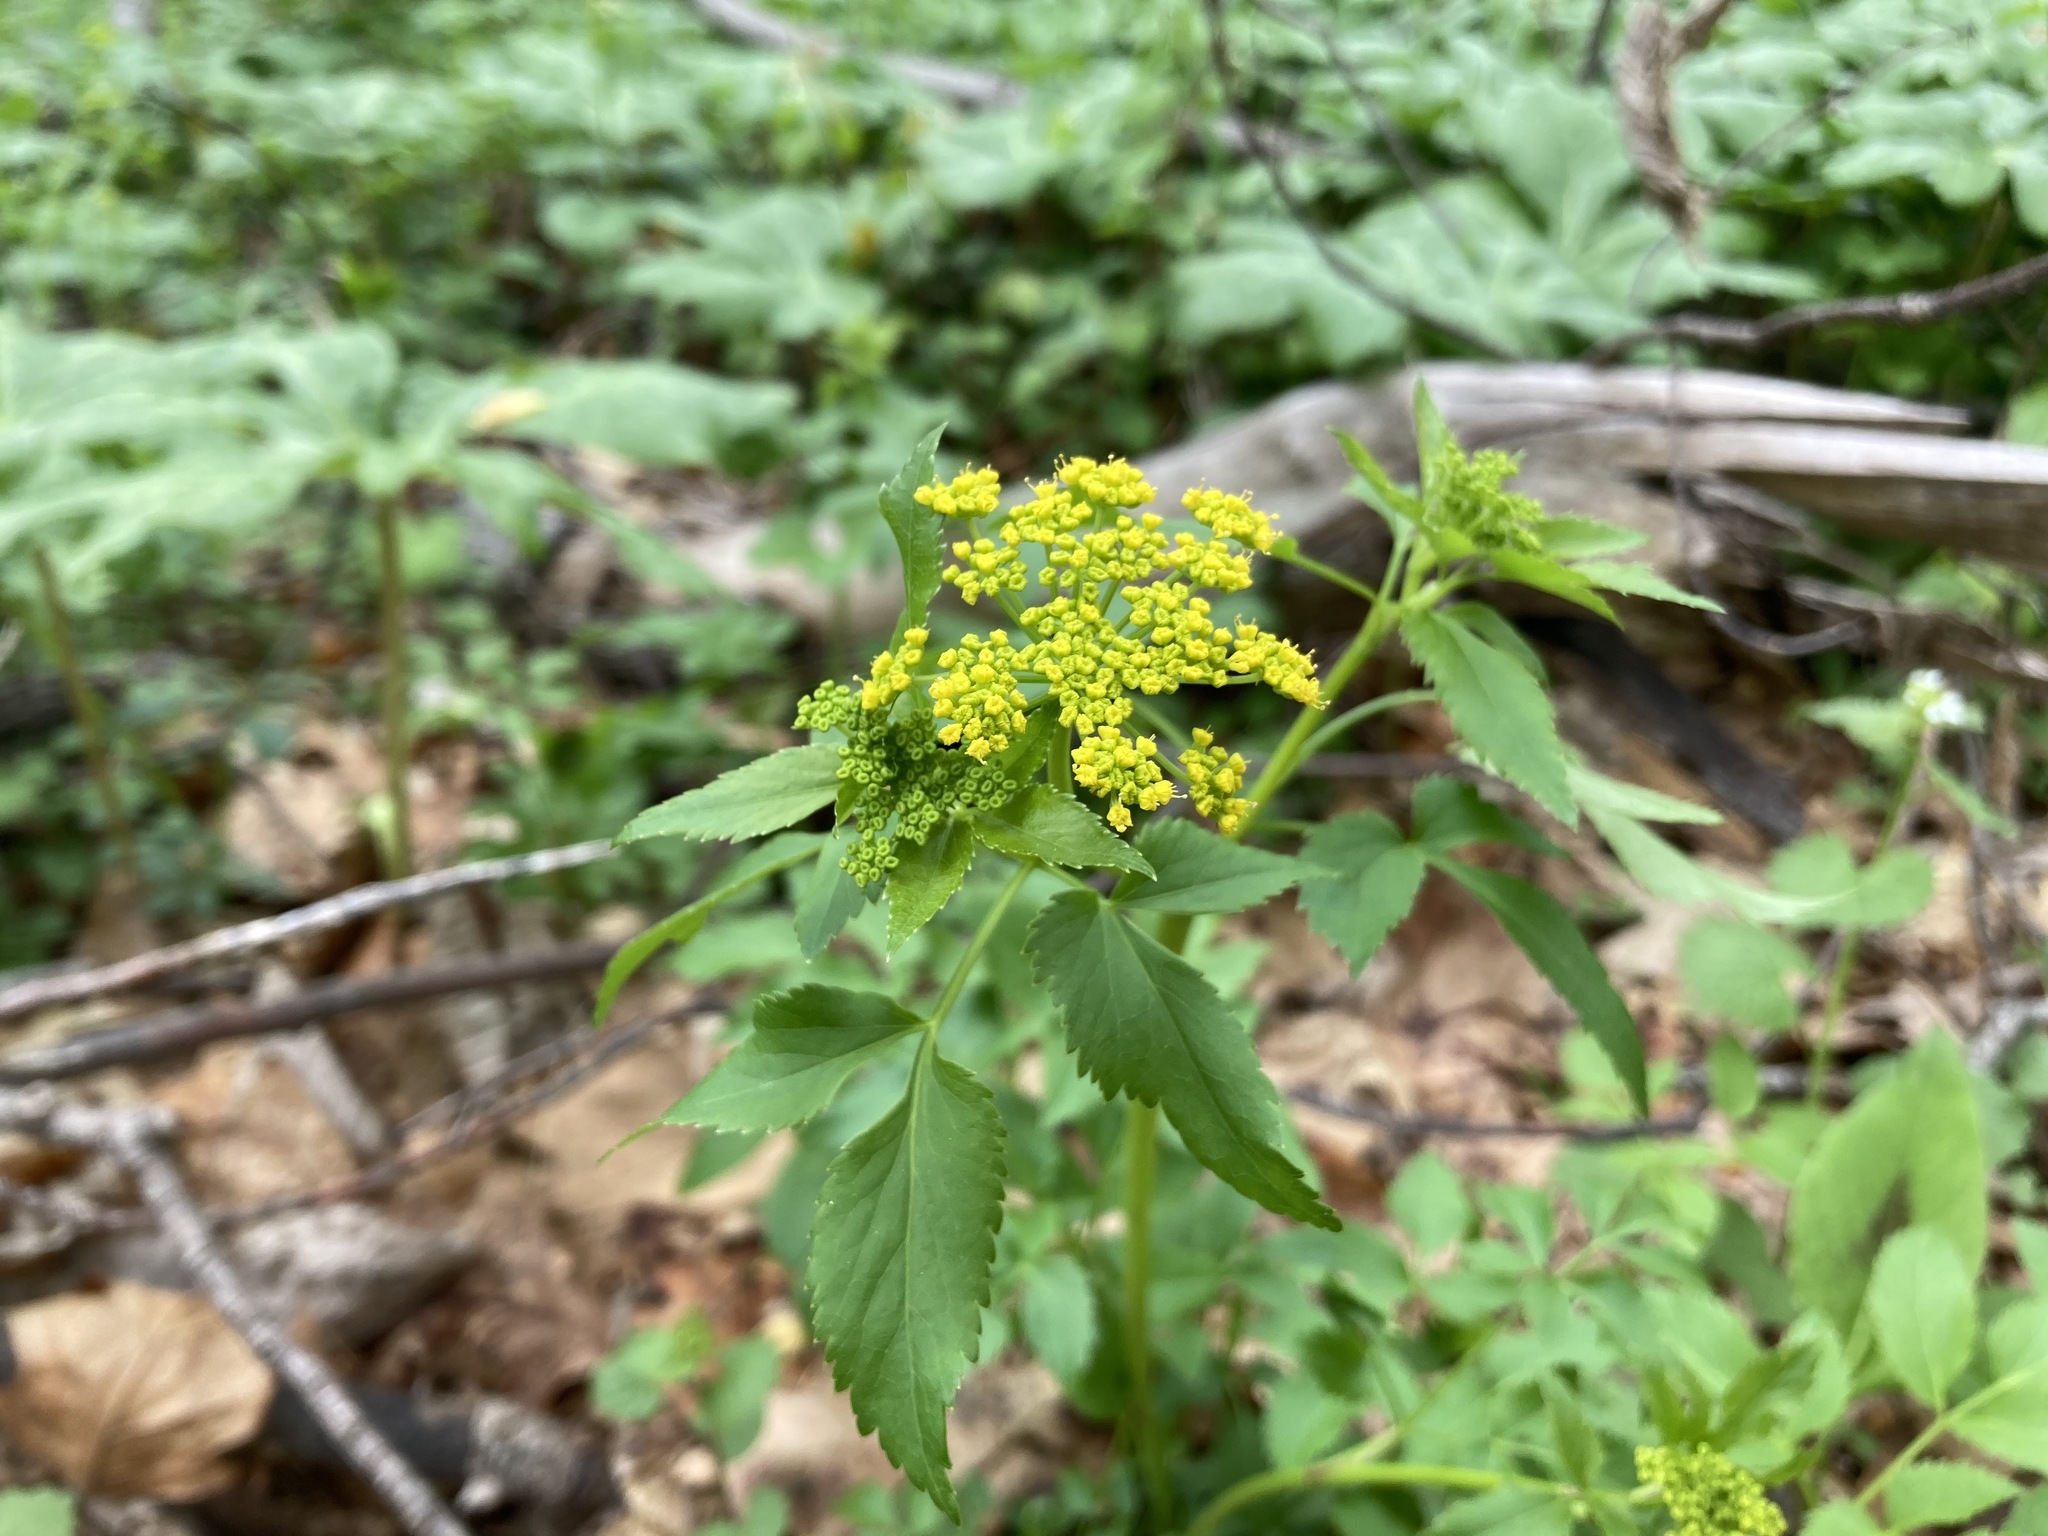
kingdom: Plantae
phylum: Tracheophyta
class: Magnoliopsida
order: Apiales
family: Apiaceae
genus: Zizia
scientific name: Zizia aurea
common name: Golden alexanders
